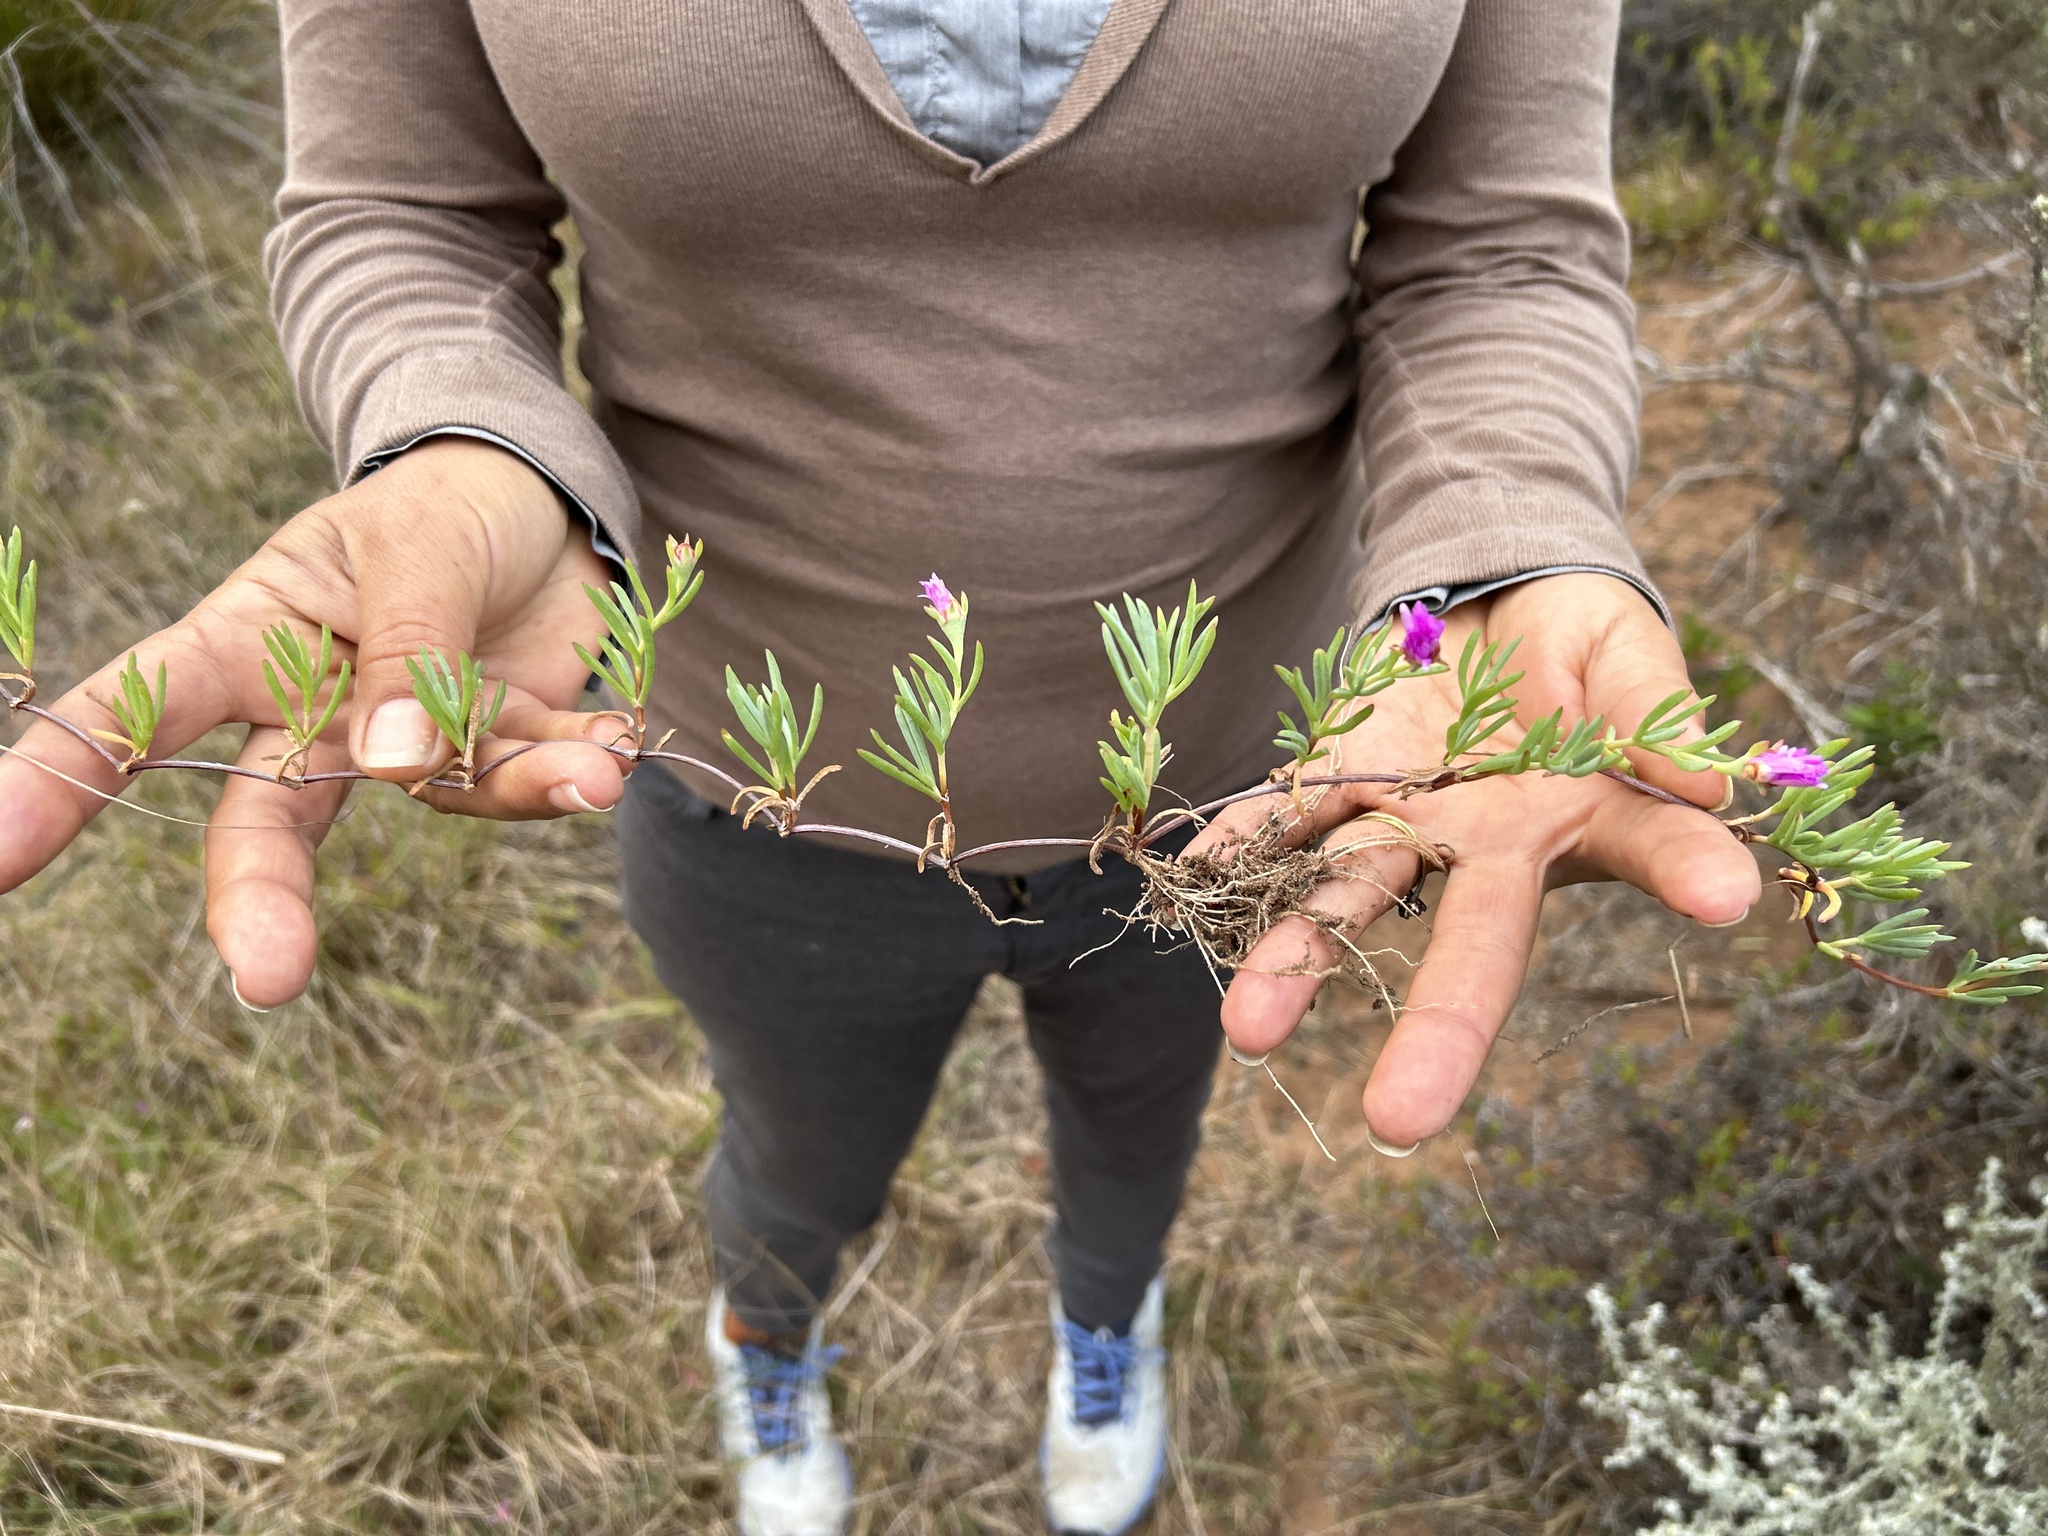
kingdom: Plantae
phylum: Tracheophyta
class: Magnoliopsida
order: Caryophyllales
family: Aizoaceae
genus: Lampranthus
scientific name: Lampranthus multiseriatus
